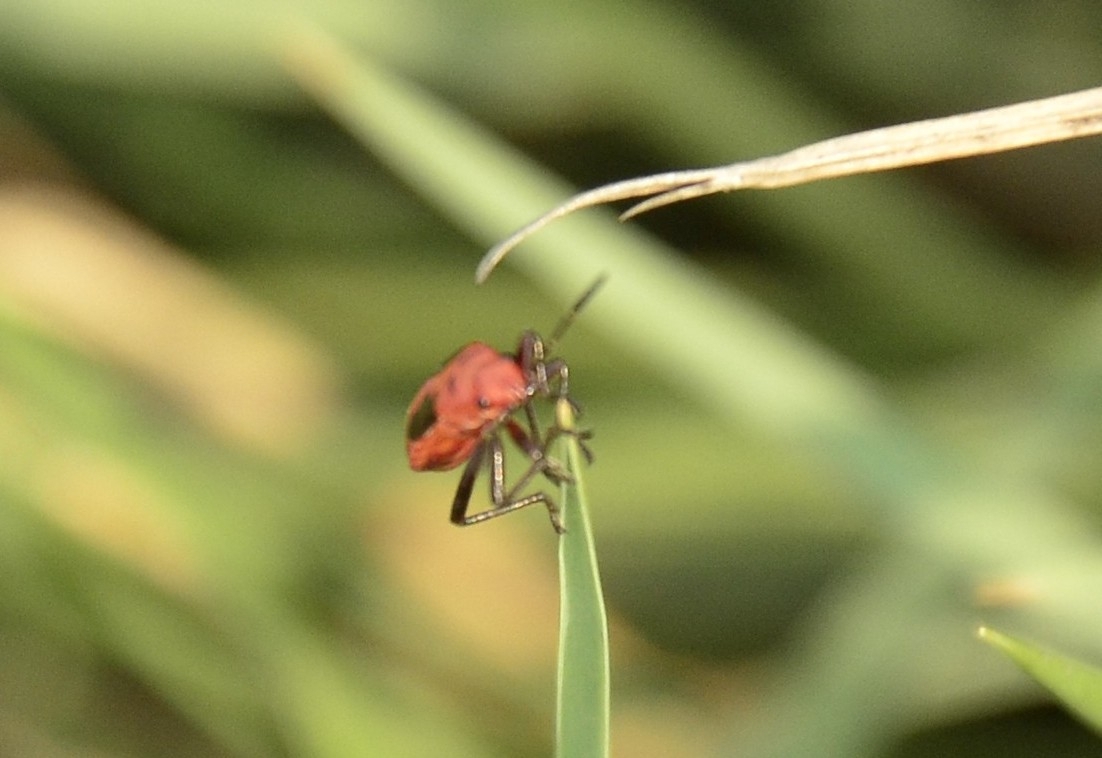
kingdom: Animalia
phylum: Arthropoda
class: Insecta
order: Hemiptera
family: Lygaeidae
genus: Spilostethus
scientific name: Spilostethus hospes
